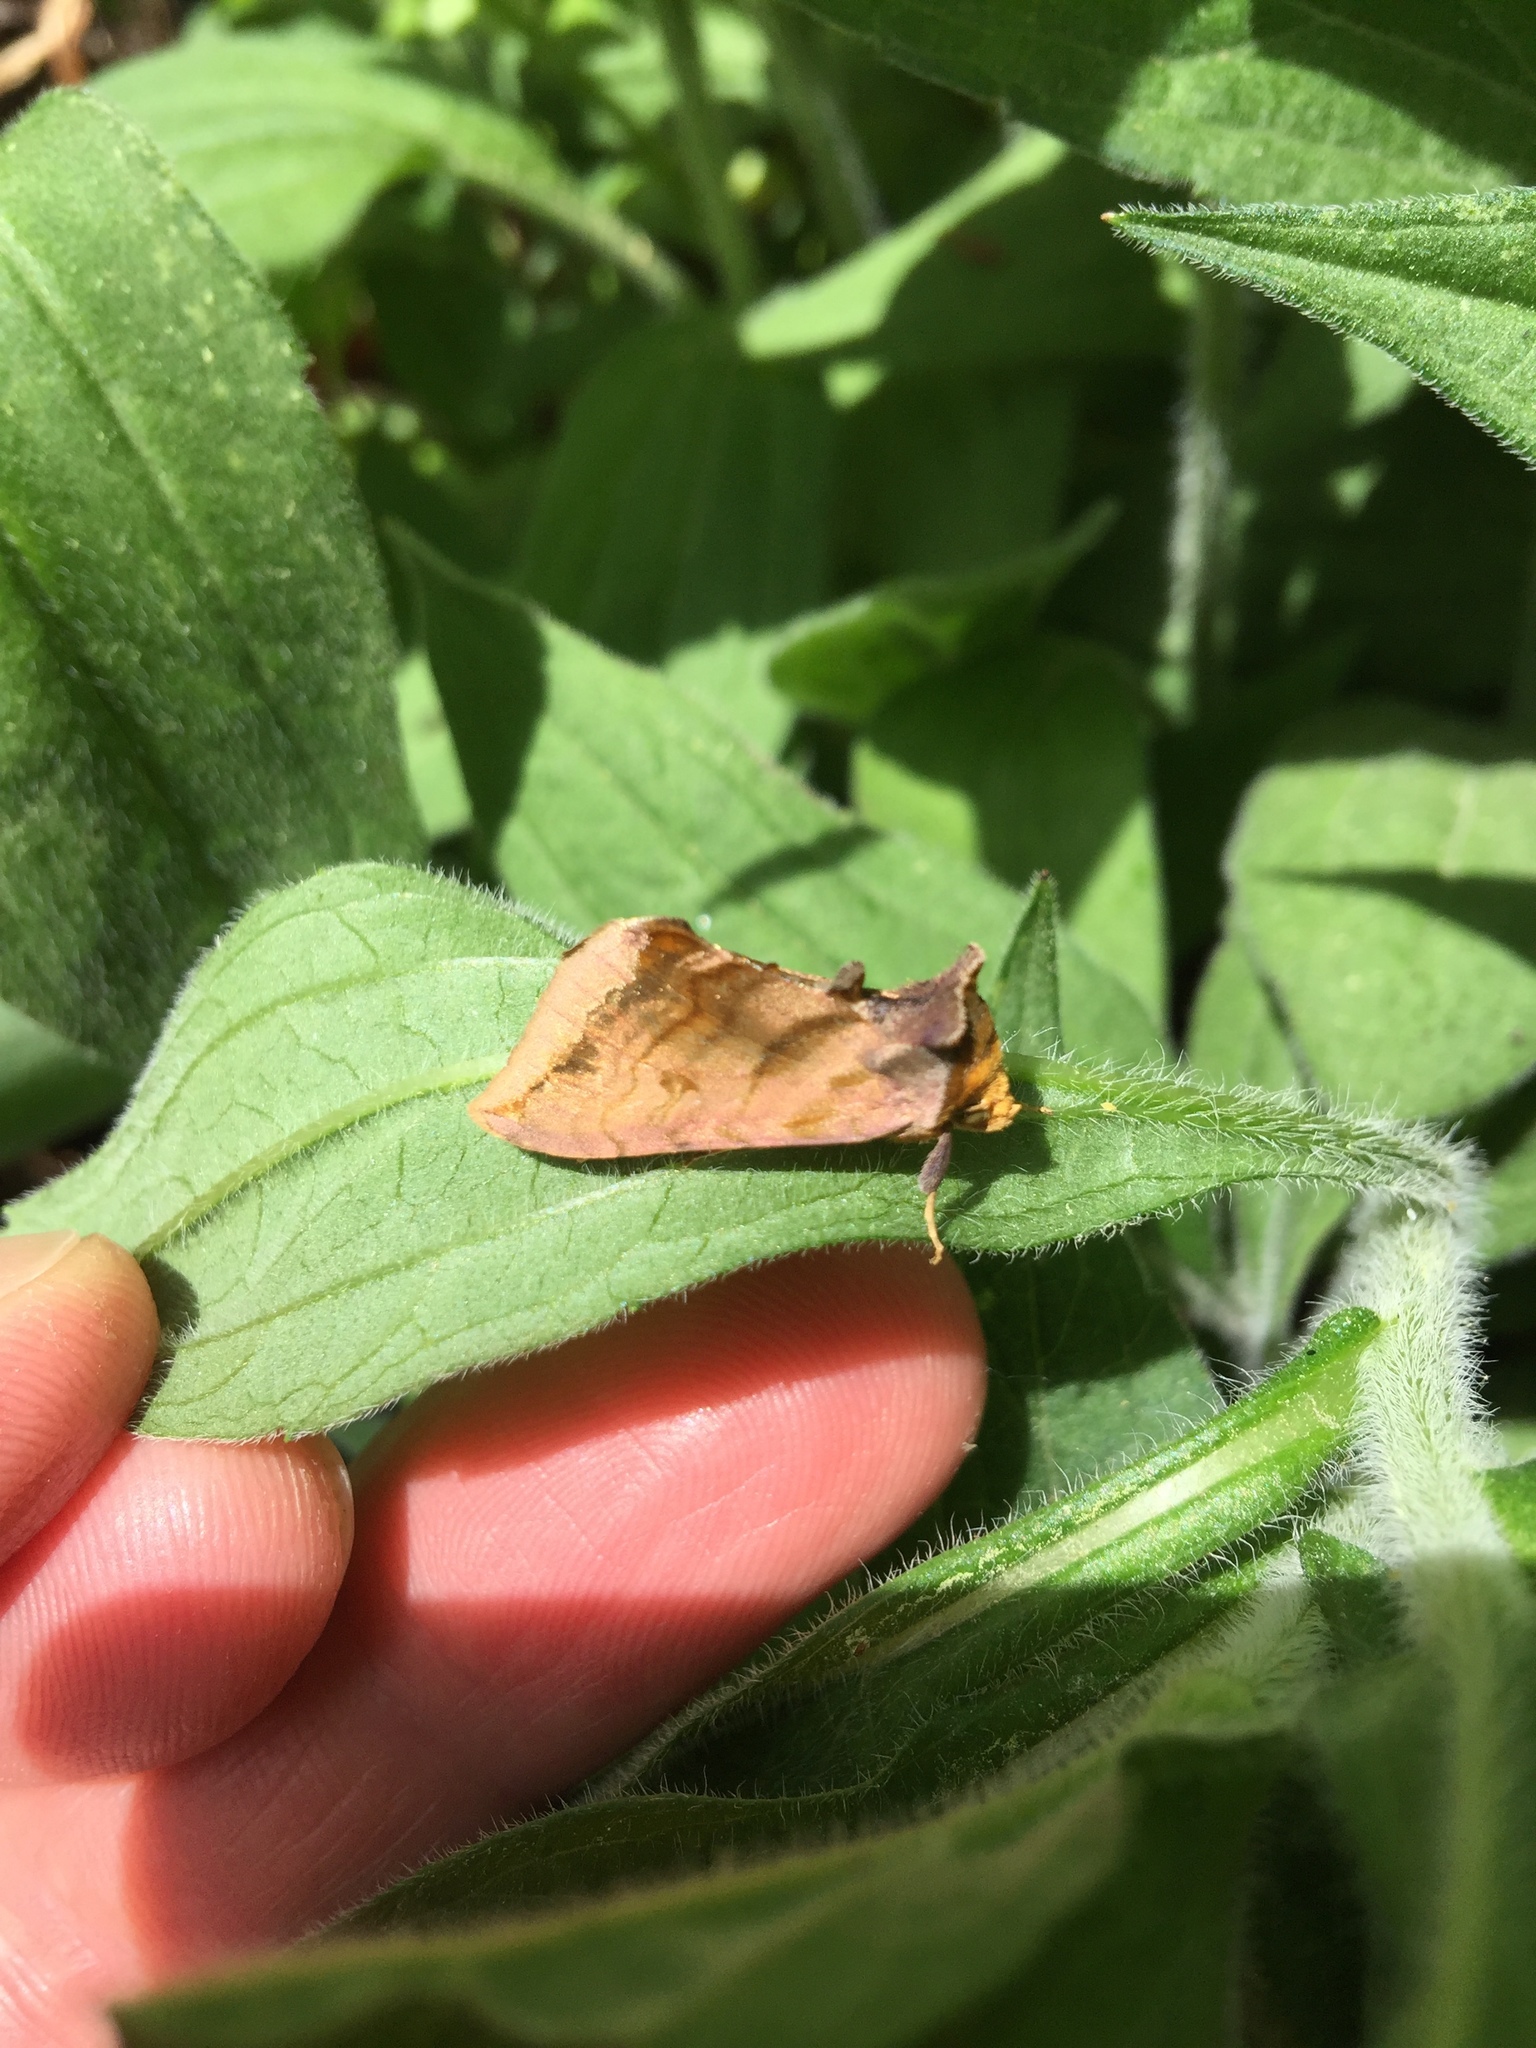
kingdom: Animalia
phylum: Arthropoda
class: Insecta
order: Lepidoptera
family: Noctuidae
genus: Allagrapha
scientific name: Allagrapha aerea
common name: Unspotted looper moth
